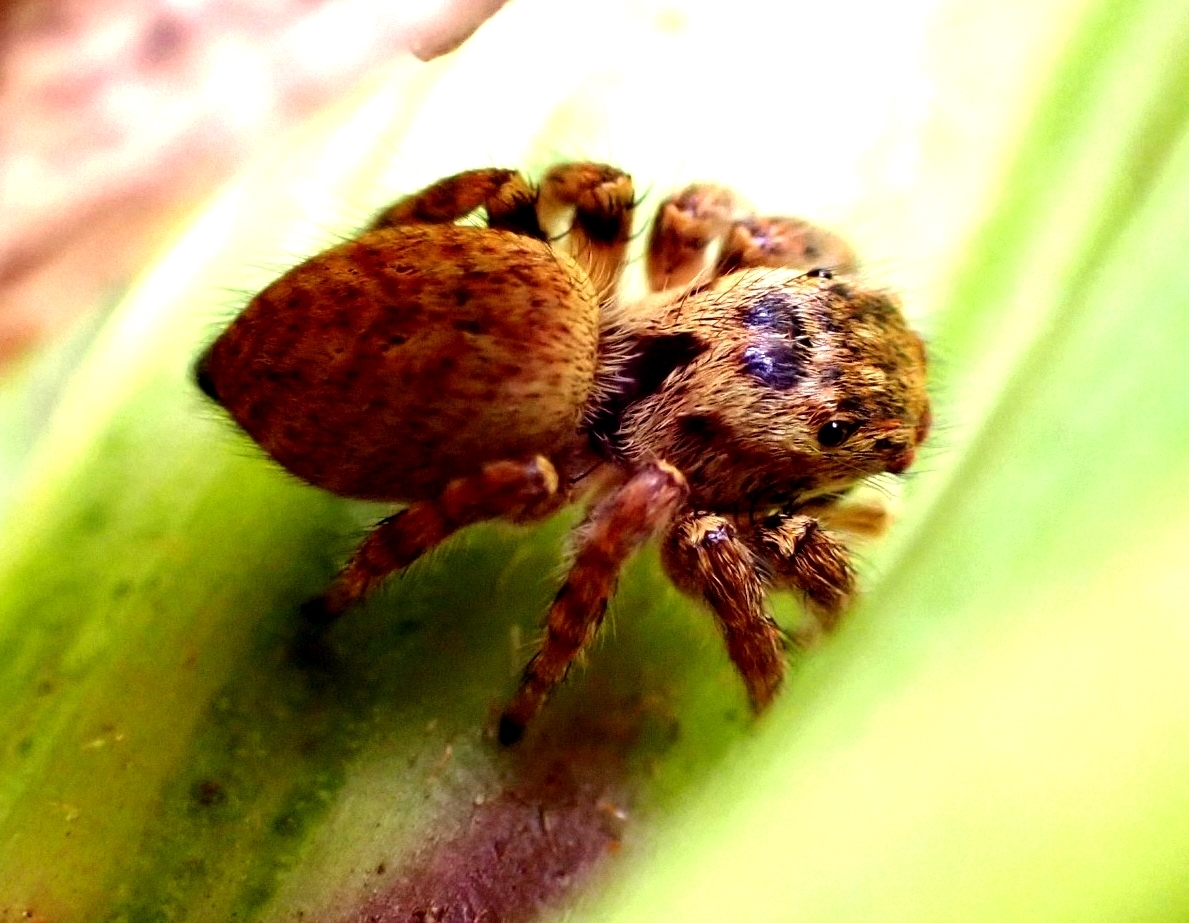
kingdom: Animalia
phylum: Arthropoda
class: Arachnida
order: Araneae
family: Salticidae
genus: Carrhotus
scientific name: Carrhotus xanthogramma
